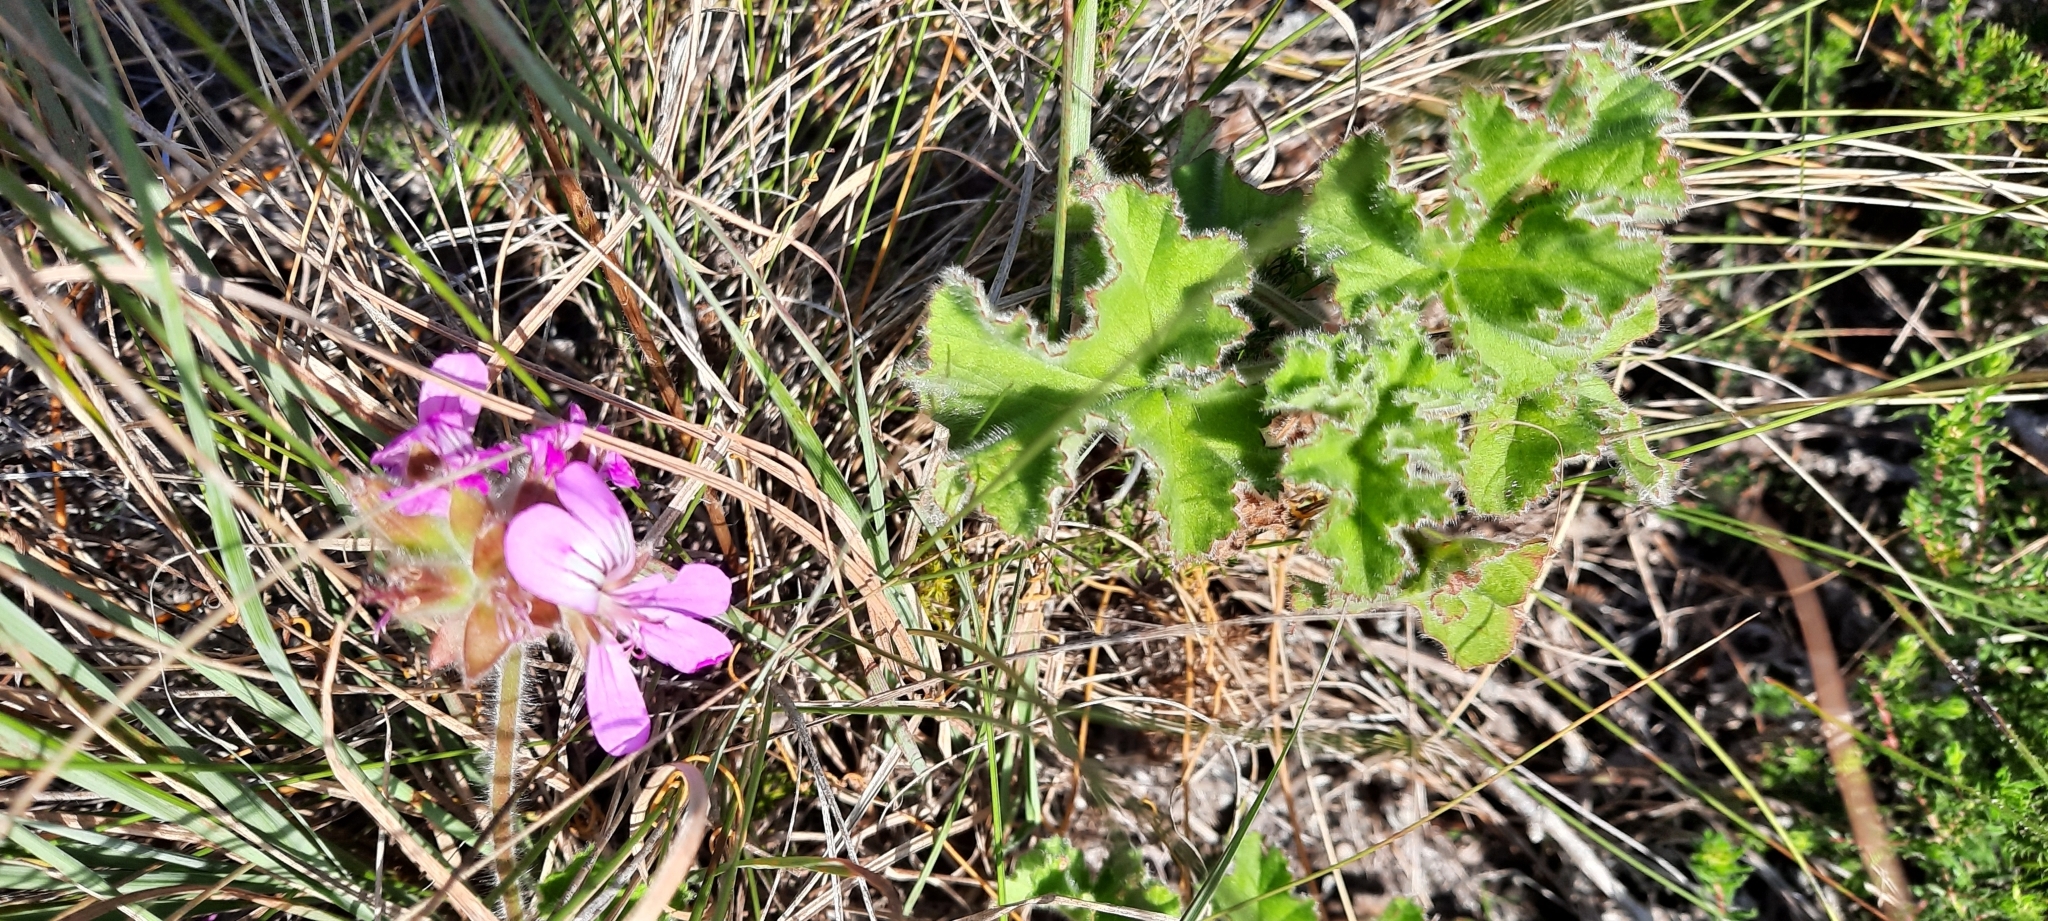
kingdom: Plantae
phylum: Tracheophyta
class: Magnoliopsida
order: Geraniales
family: Geraniaceae
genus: Pelargonium
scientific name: Pelargonium capitatum
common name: Rose scented geranium
